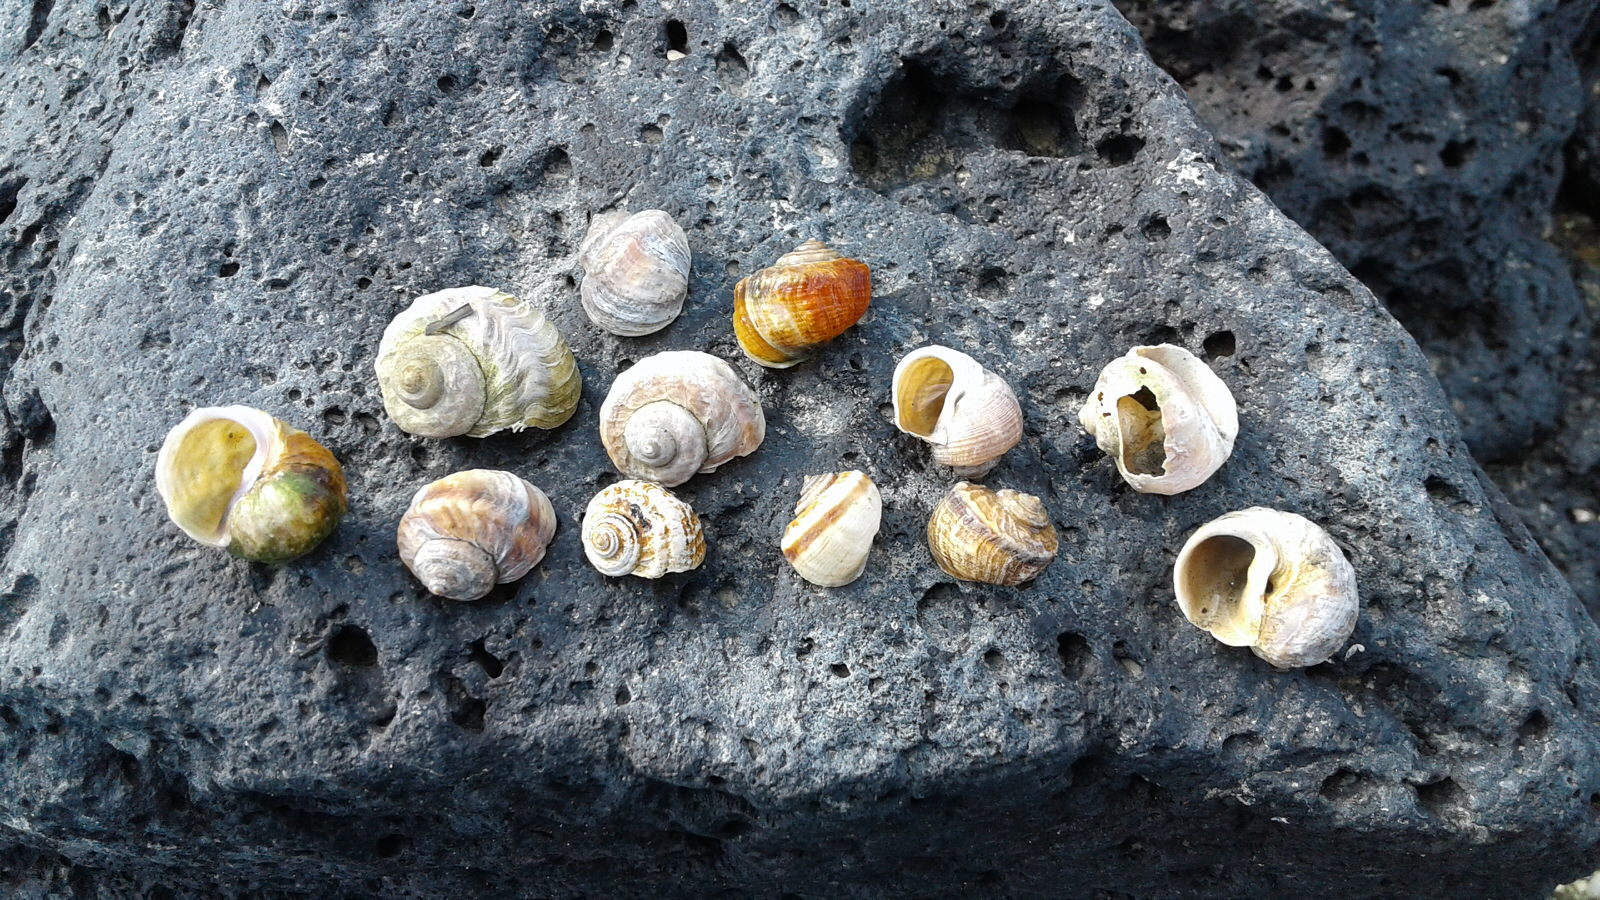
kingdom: Animalia
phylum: Mollusca
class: Gastropoda
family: Amphibolidae
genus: Amphibola
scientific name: Amphibola crenata
